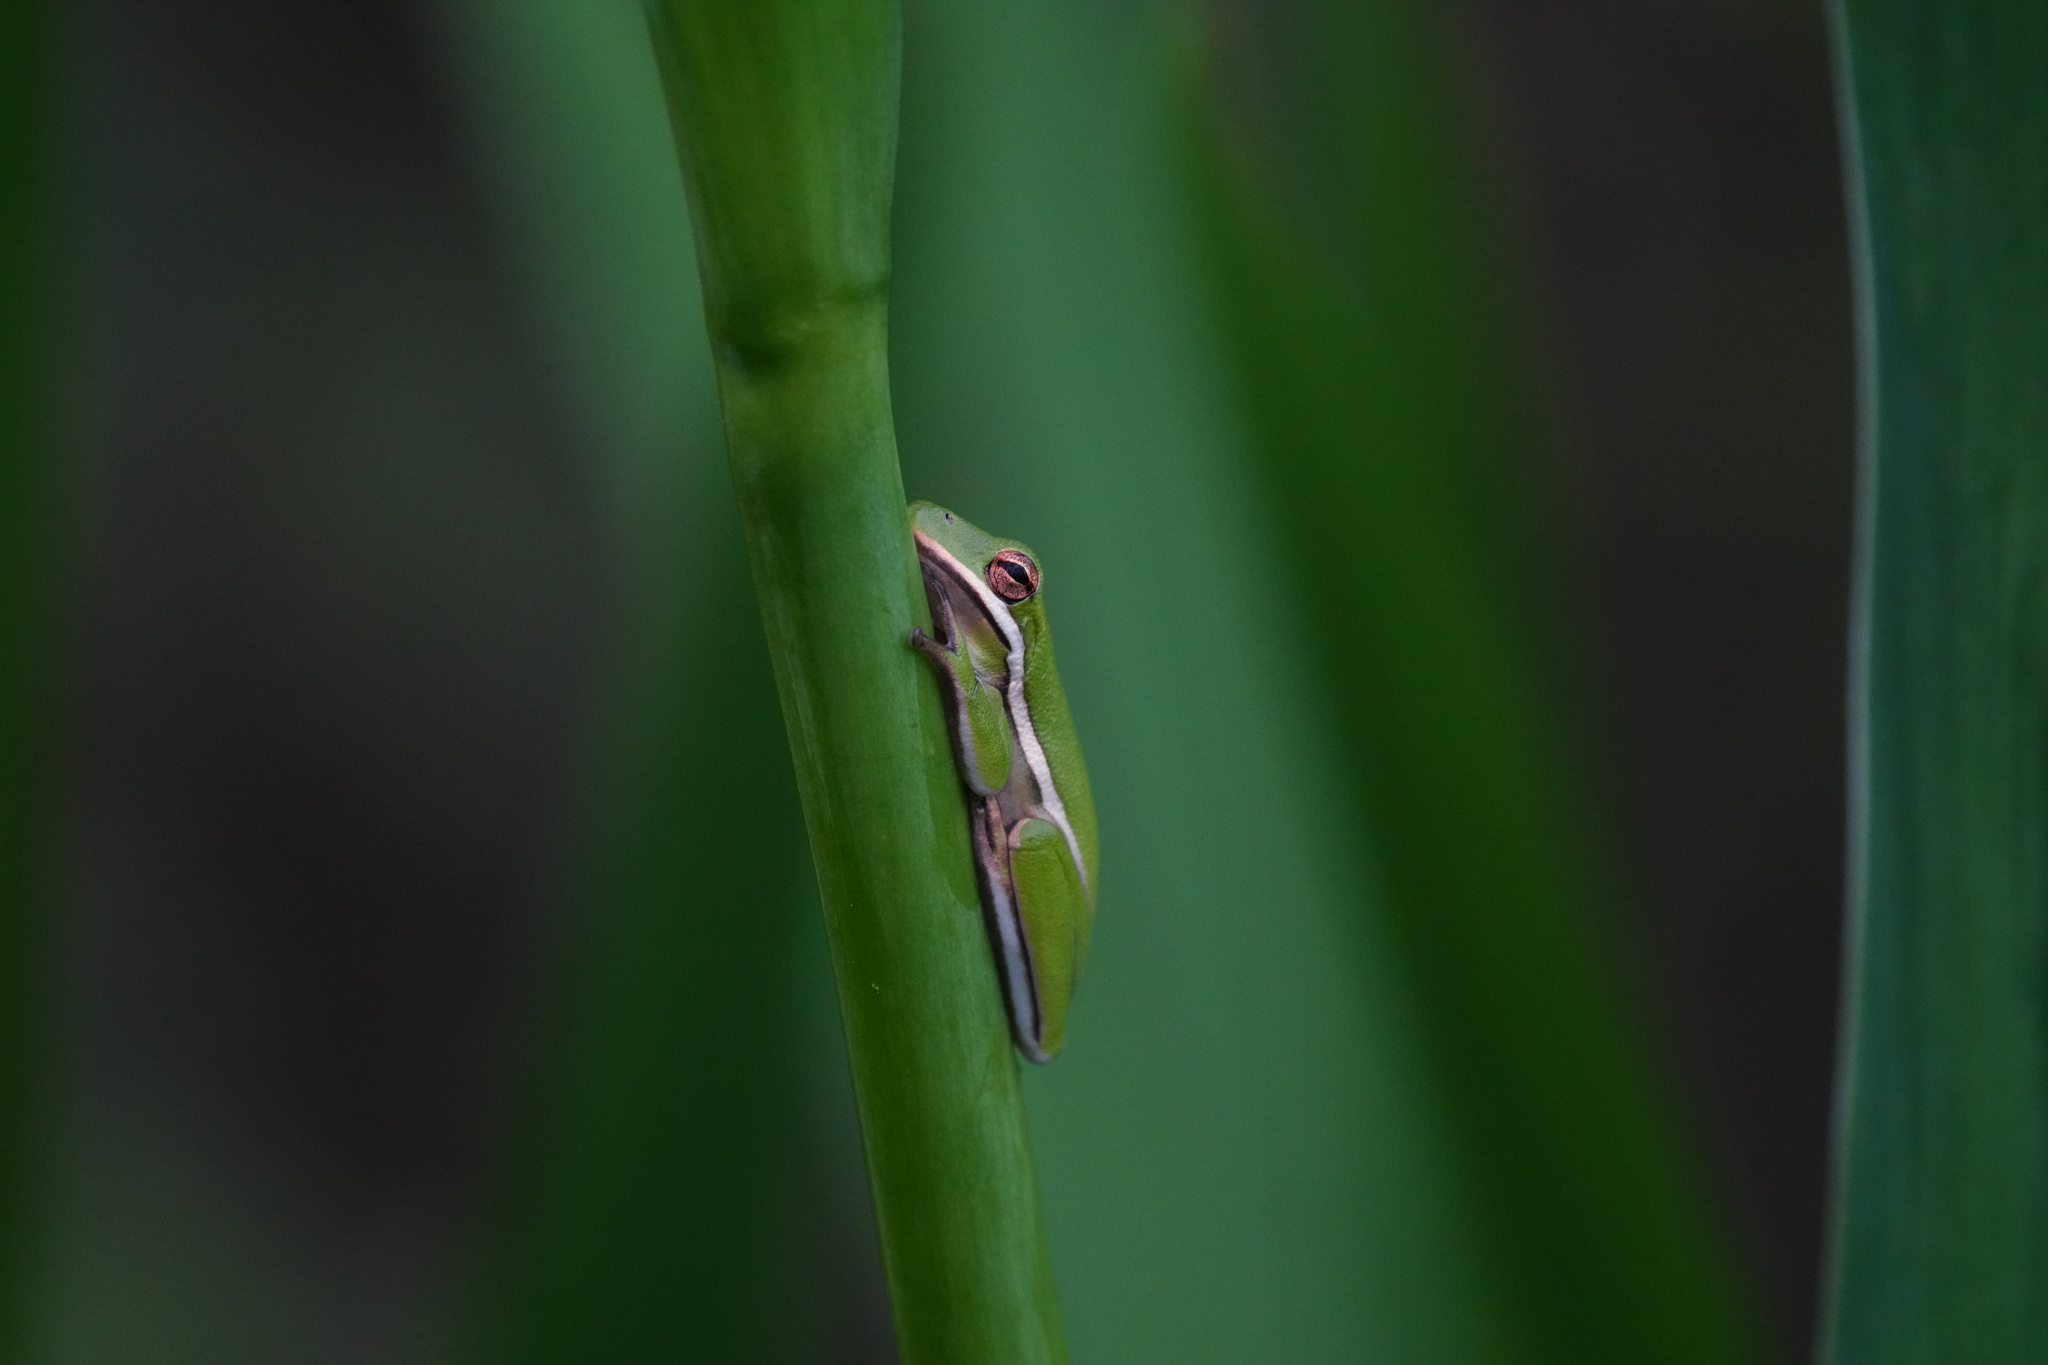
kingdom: Animalia
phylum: Chordata
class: Amphibia
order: Anura
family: Hylidae
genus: Dryophytes
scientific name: Dryophytes cinereus
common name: Green treefrog
